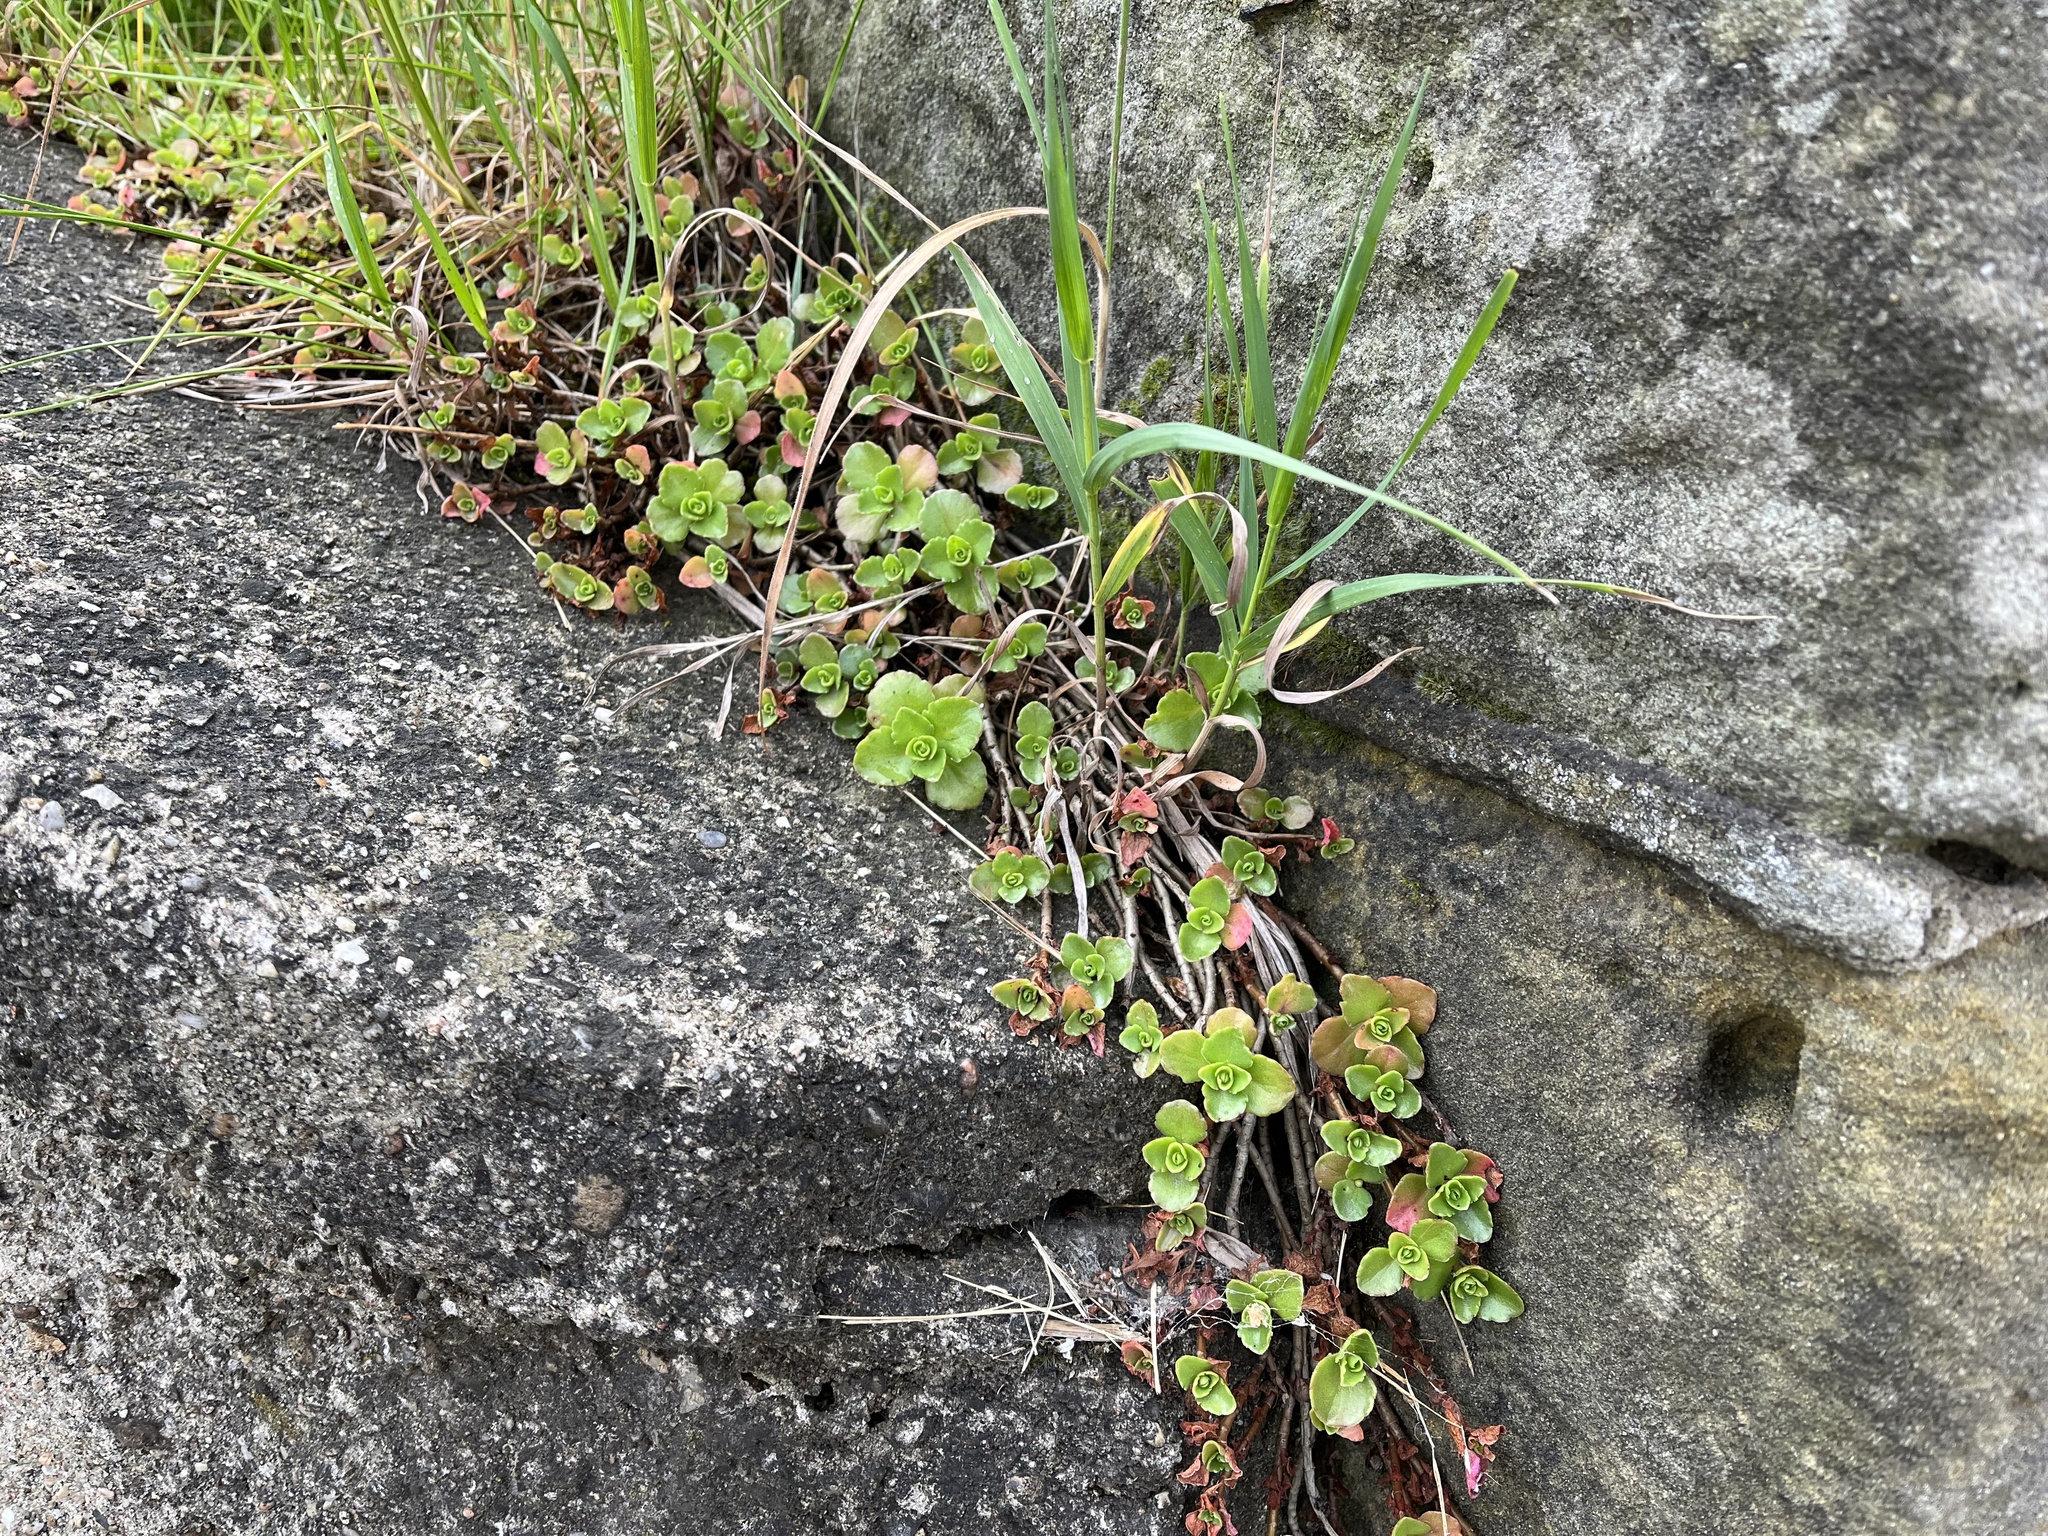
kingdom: Plantae
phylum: Tracheophyta
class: Magnoliopsida
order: Saxifragales
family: Crassulaceae
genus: Phedimus
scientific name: Phedimus spurius
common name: Caucasian stonecrop
